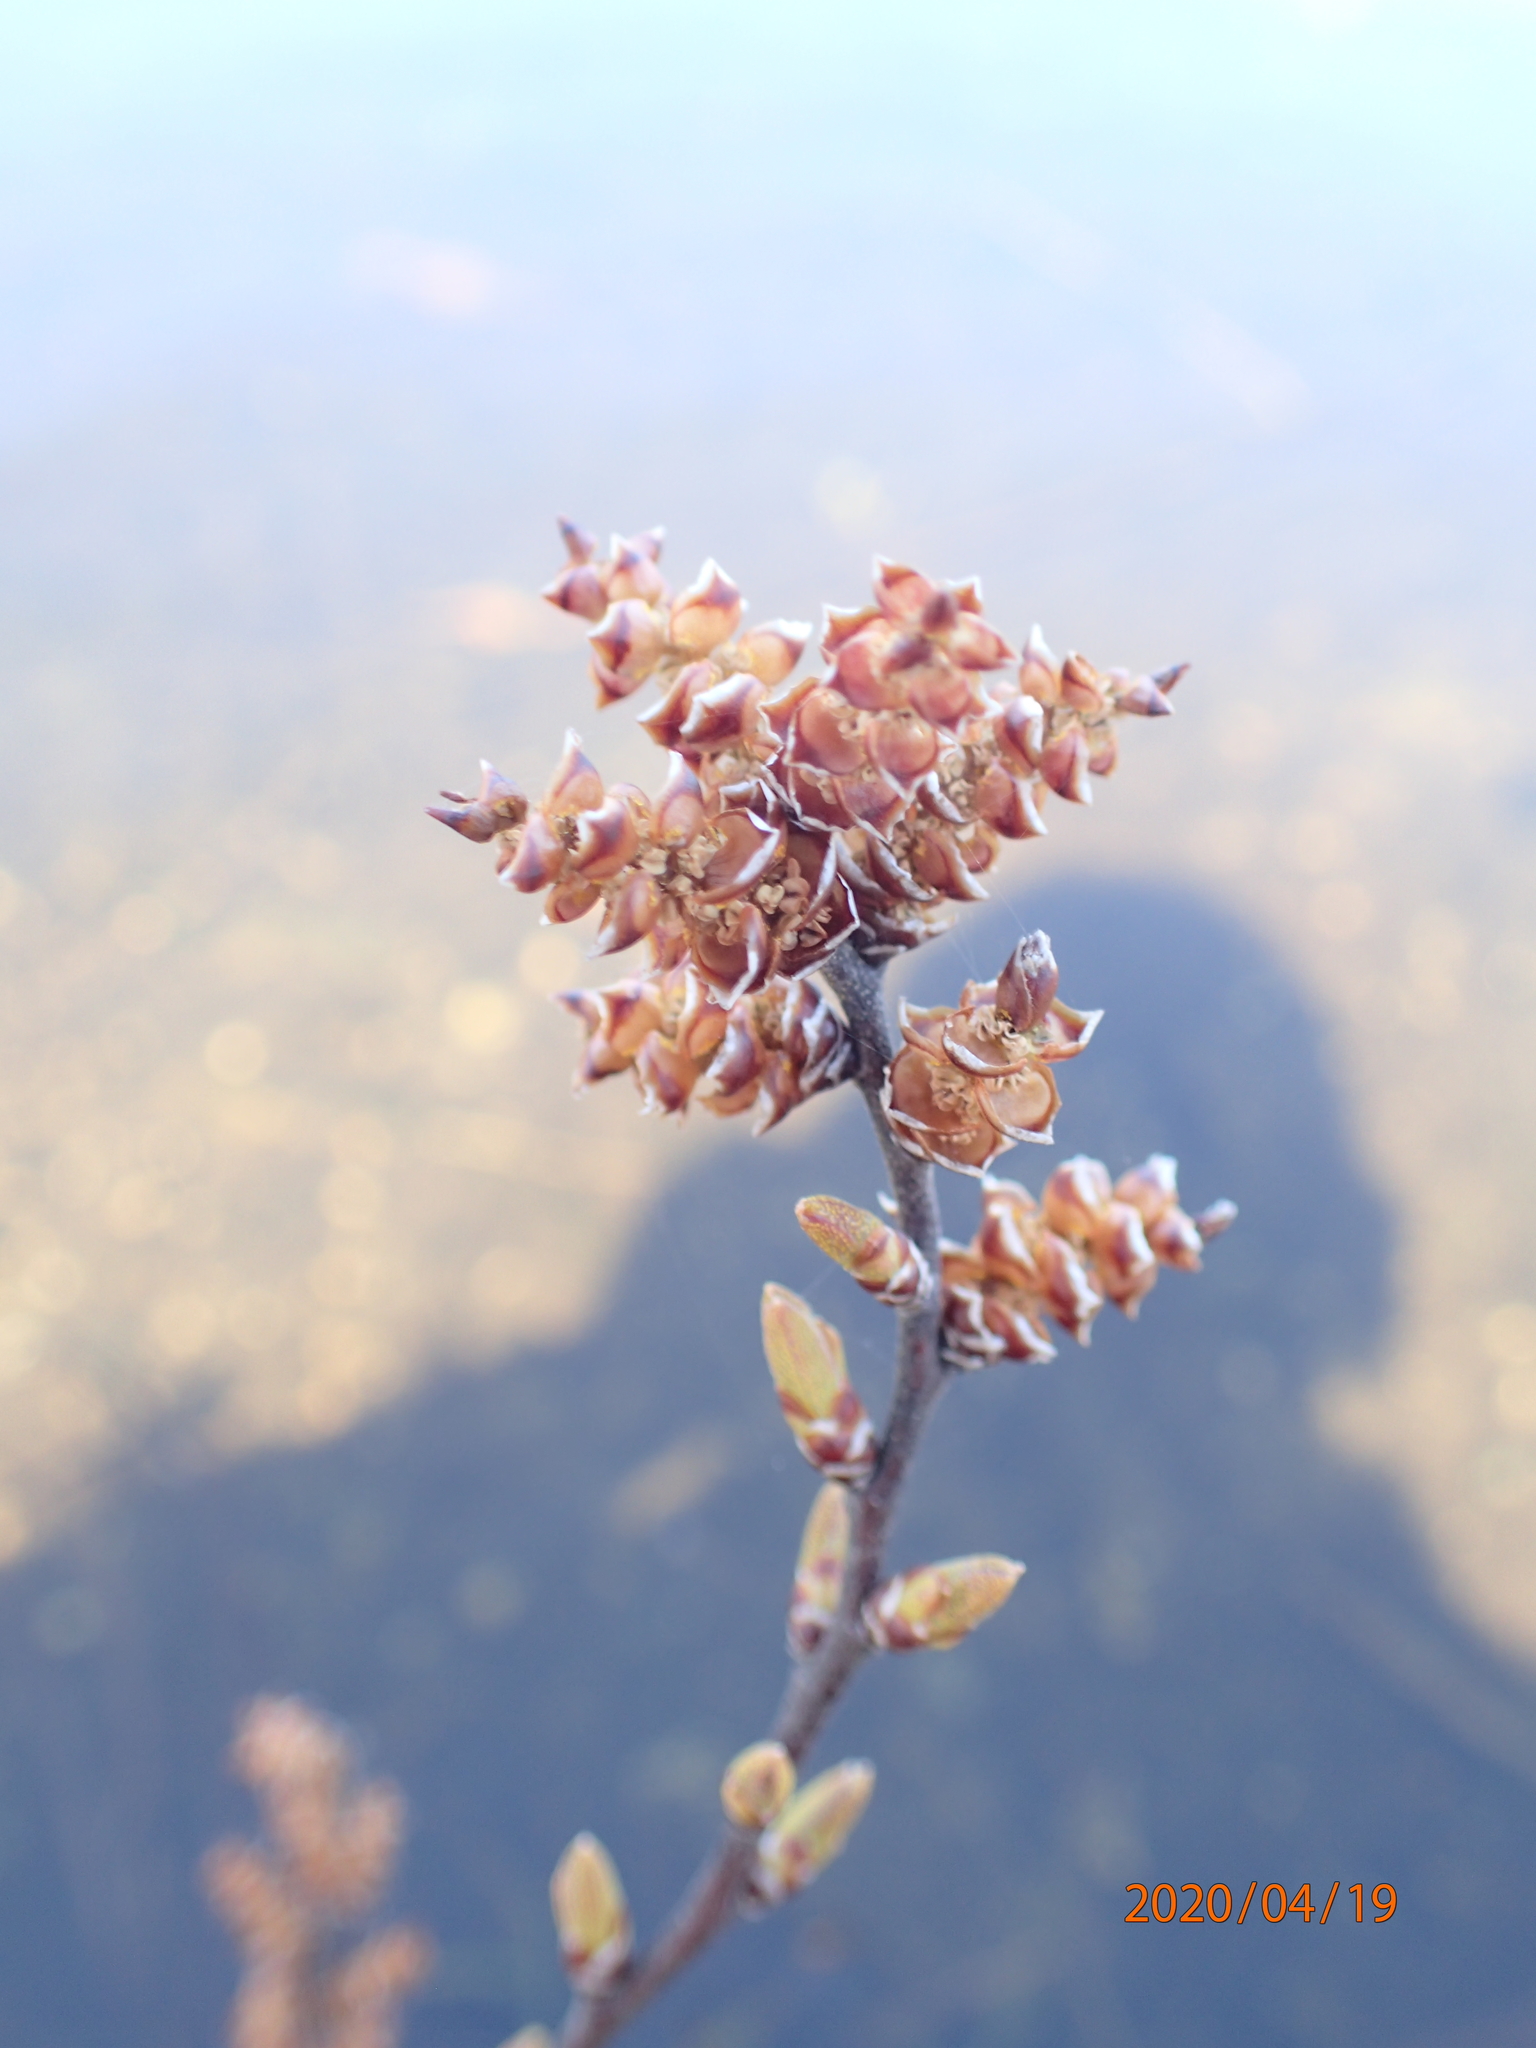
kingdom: Plantae
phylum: Tracheophyta
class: Magnoliopsida
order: Fagales
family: Myricaceae
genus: Myrica
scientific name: Myrica gale
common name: Sweet gale
